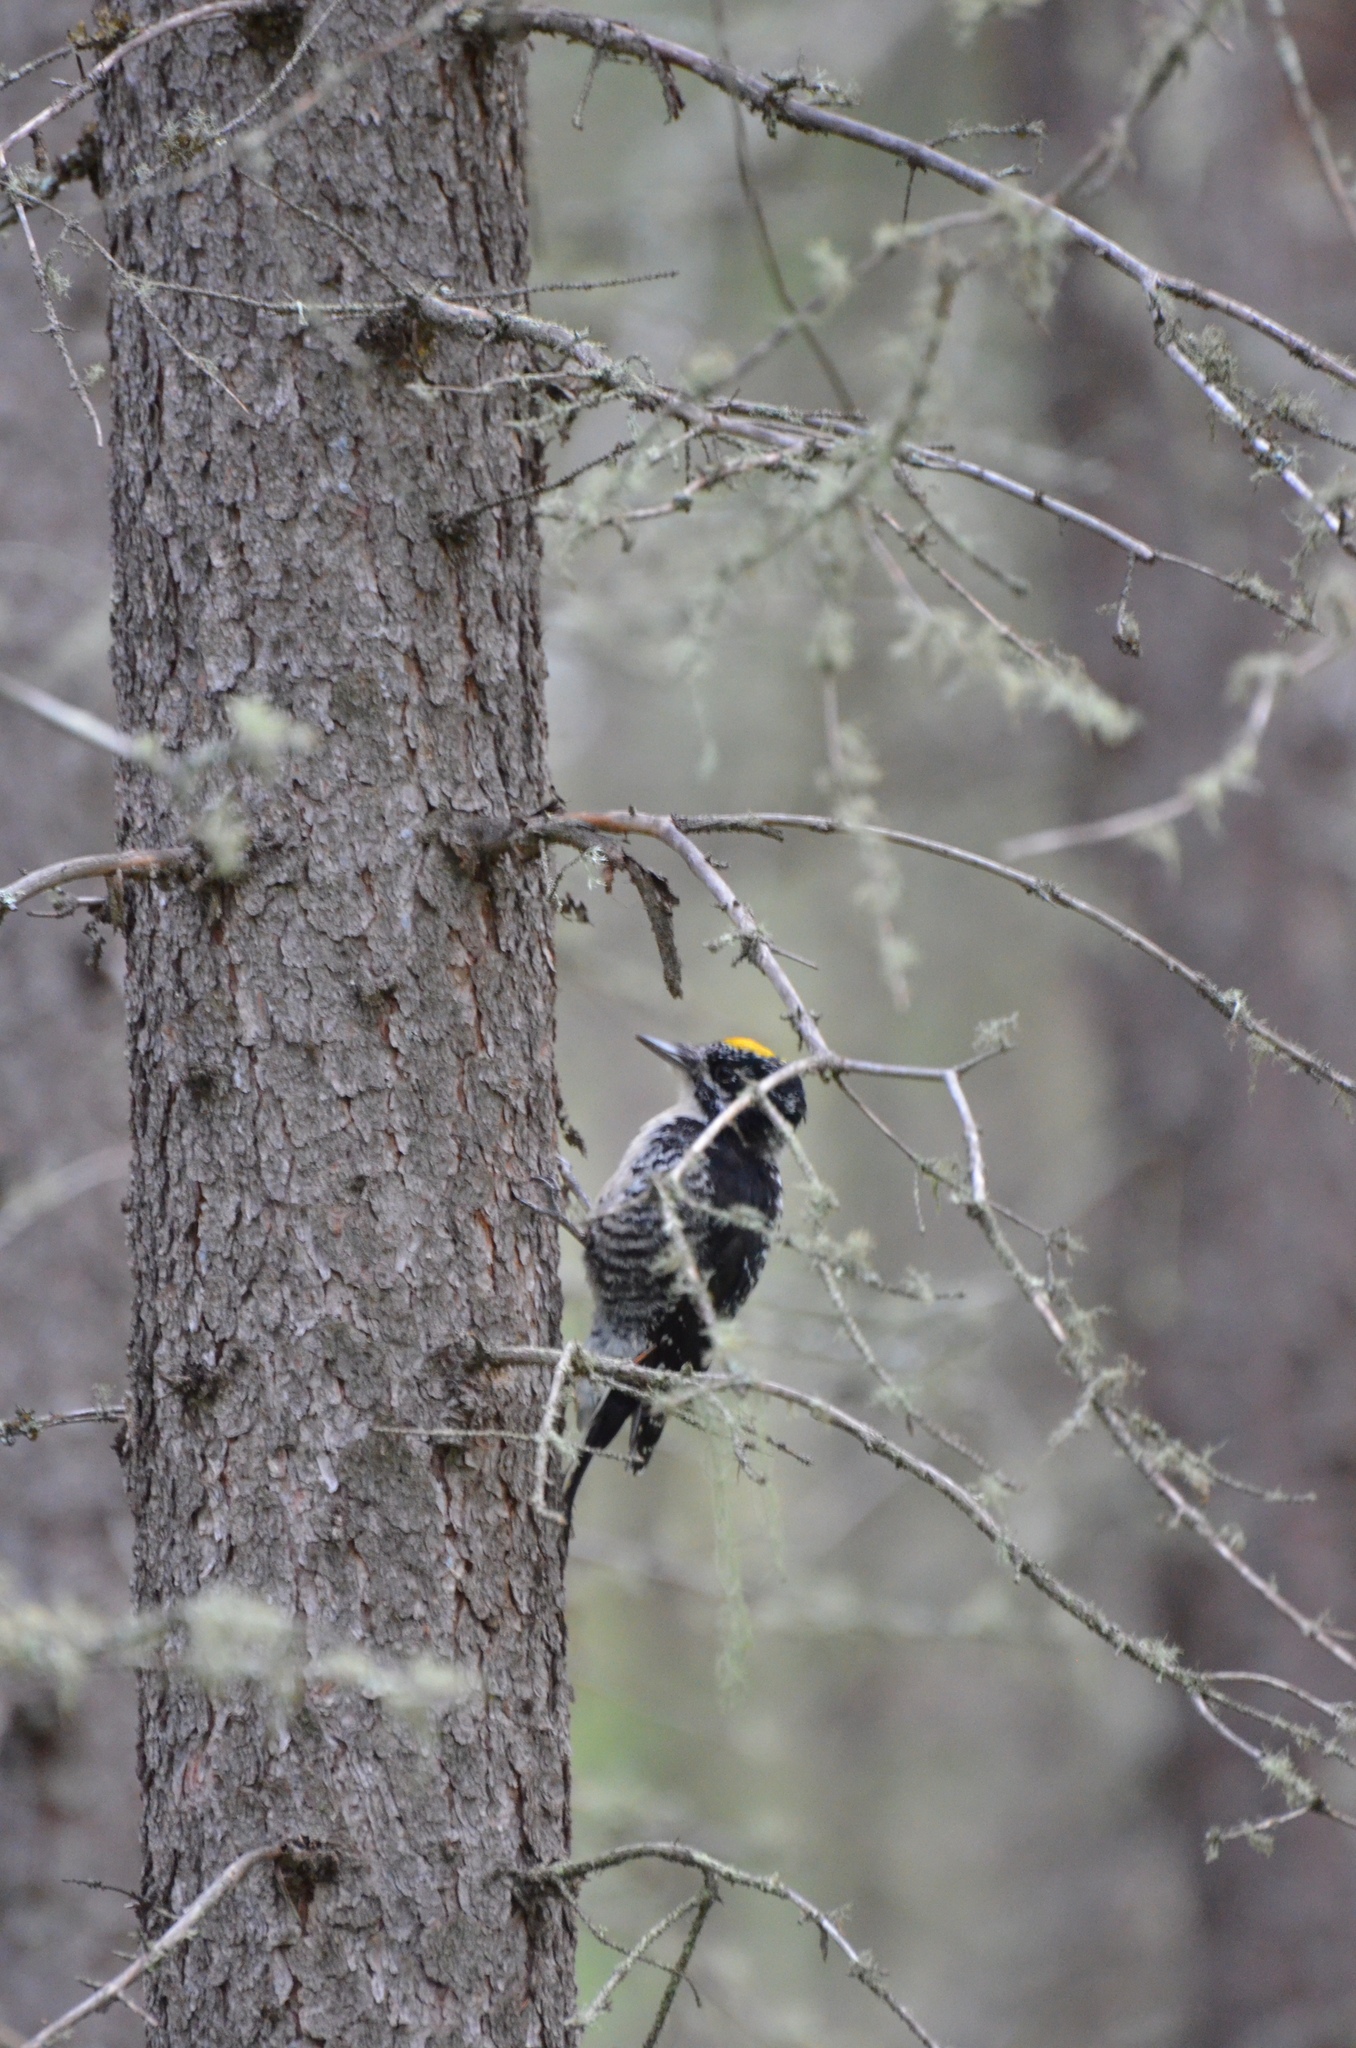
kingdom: Animalia
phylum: Chordata
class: Aves
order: Piciformes
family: Picidae
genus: Picoides
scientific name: Picoides dorsalis
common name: American three-toed woodpecker
